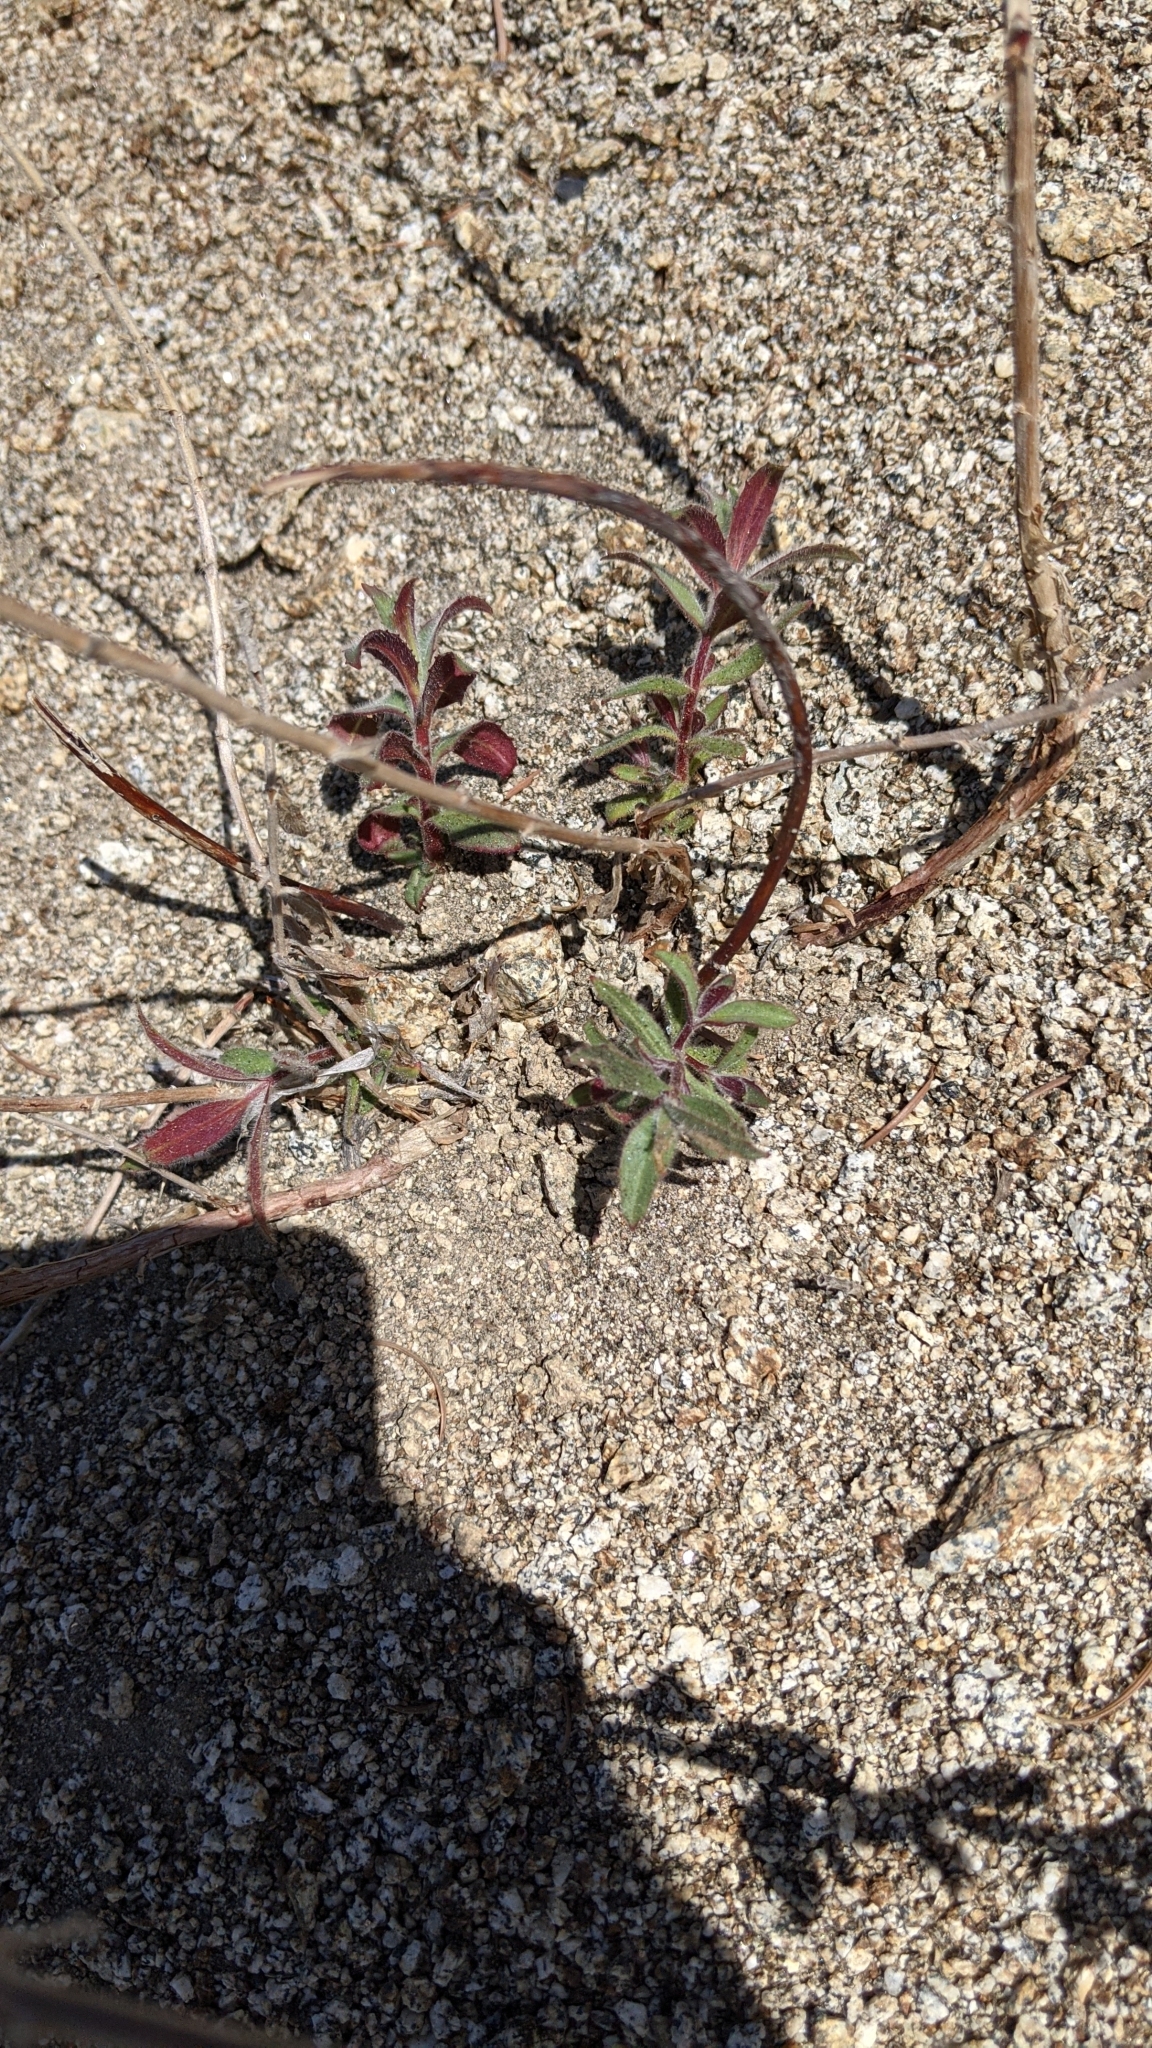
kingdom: Plantae
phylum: Tracheophyta
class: Magnoliopsida
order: Myrtales
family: Onagraceae
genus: Epilobium
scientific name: Epilobium canum
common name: California-fuchsia
